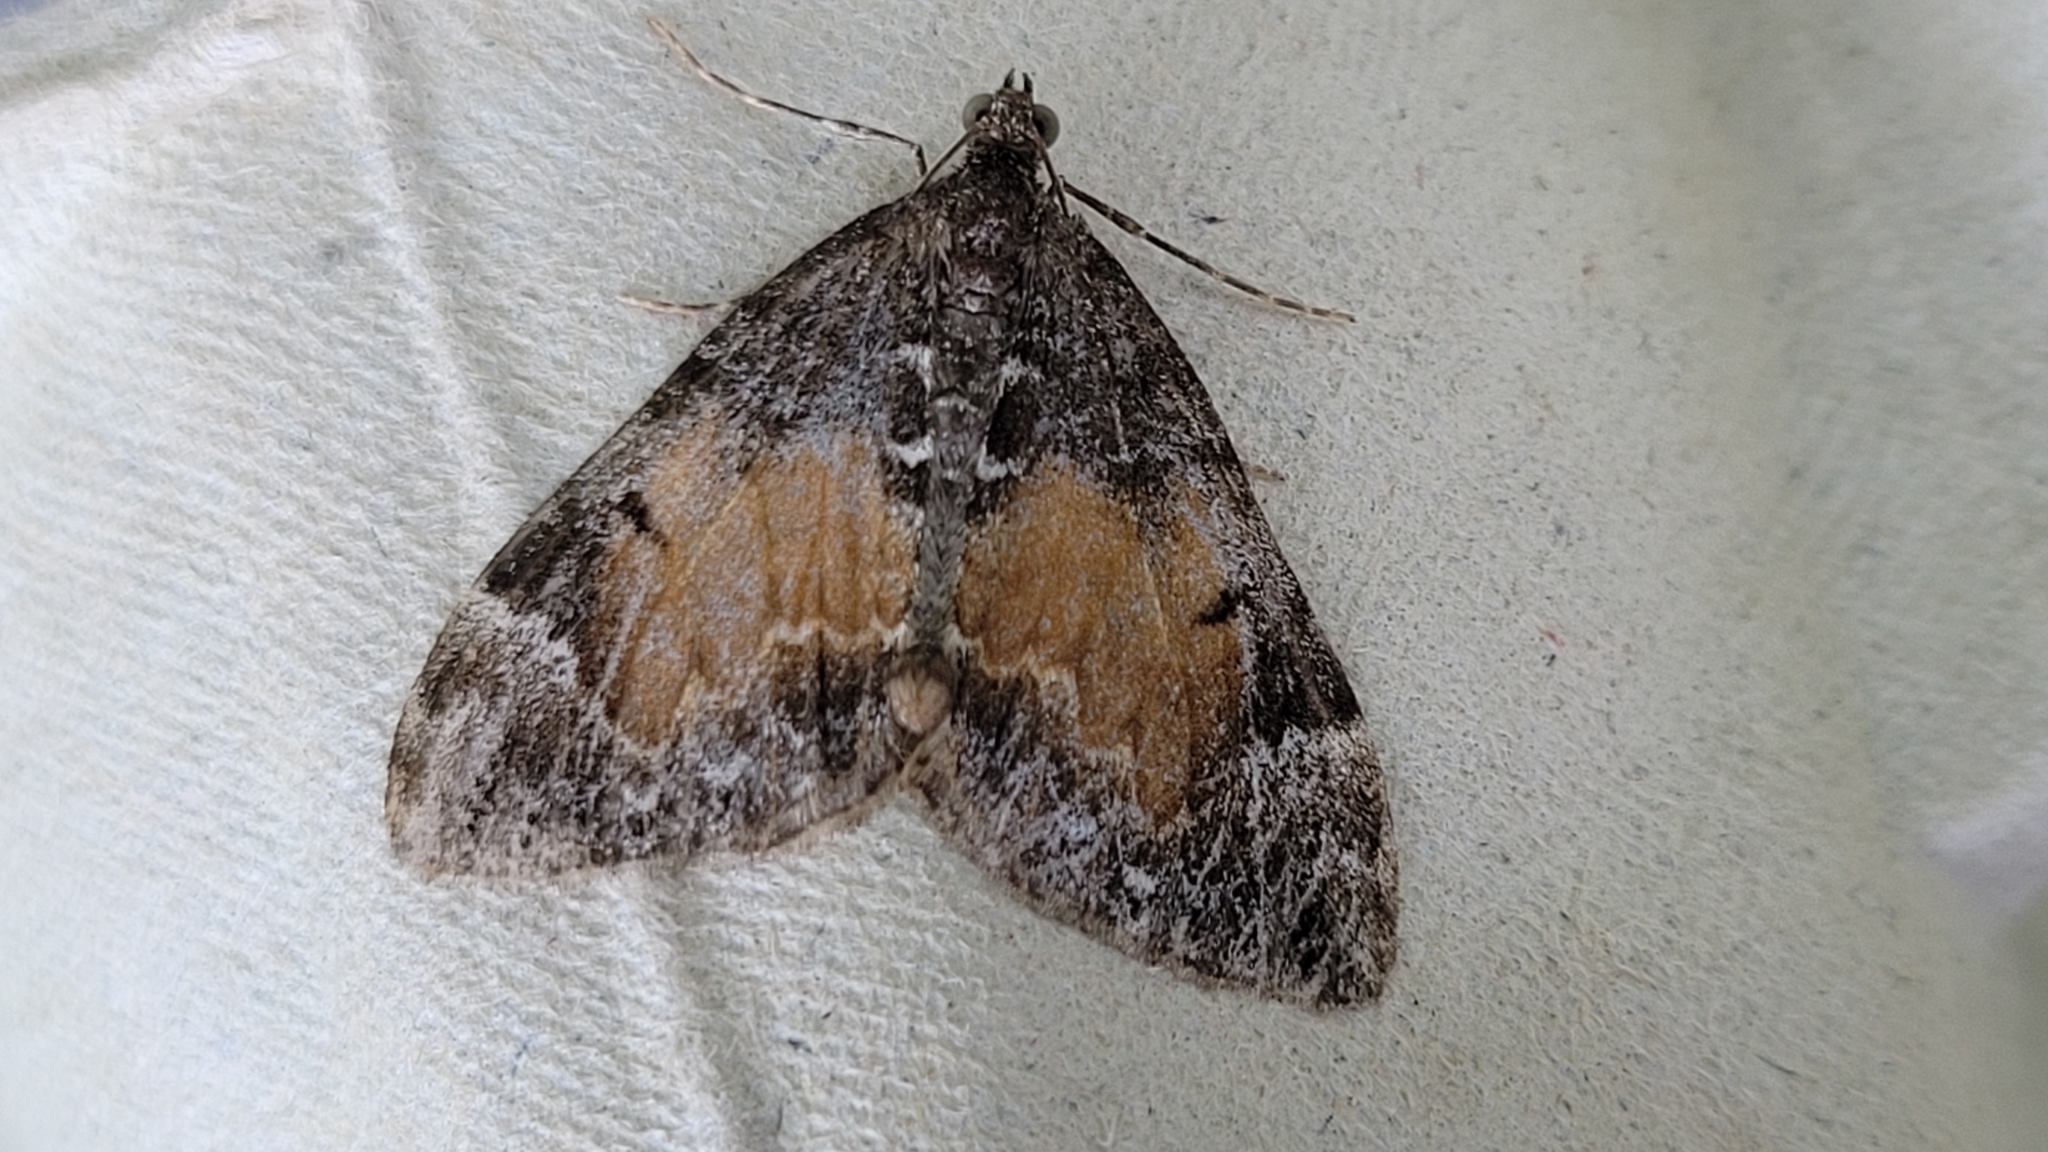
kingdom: Animalia
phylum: Arthropoda
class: Insecta
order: Lepidoptera
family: Geometridae
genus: Dysstroma
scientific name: Dysstroma truncata
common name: Common marbled carpet
